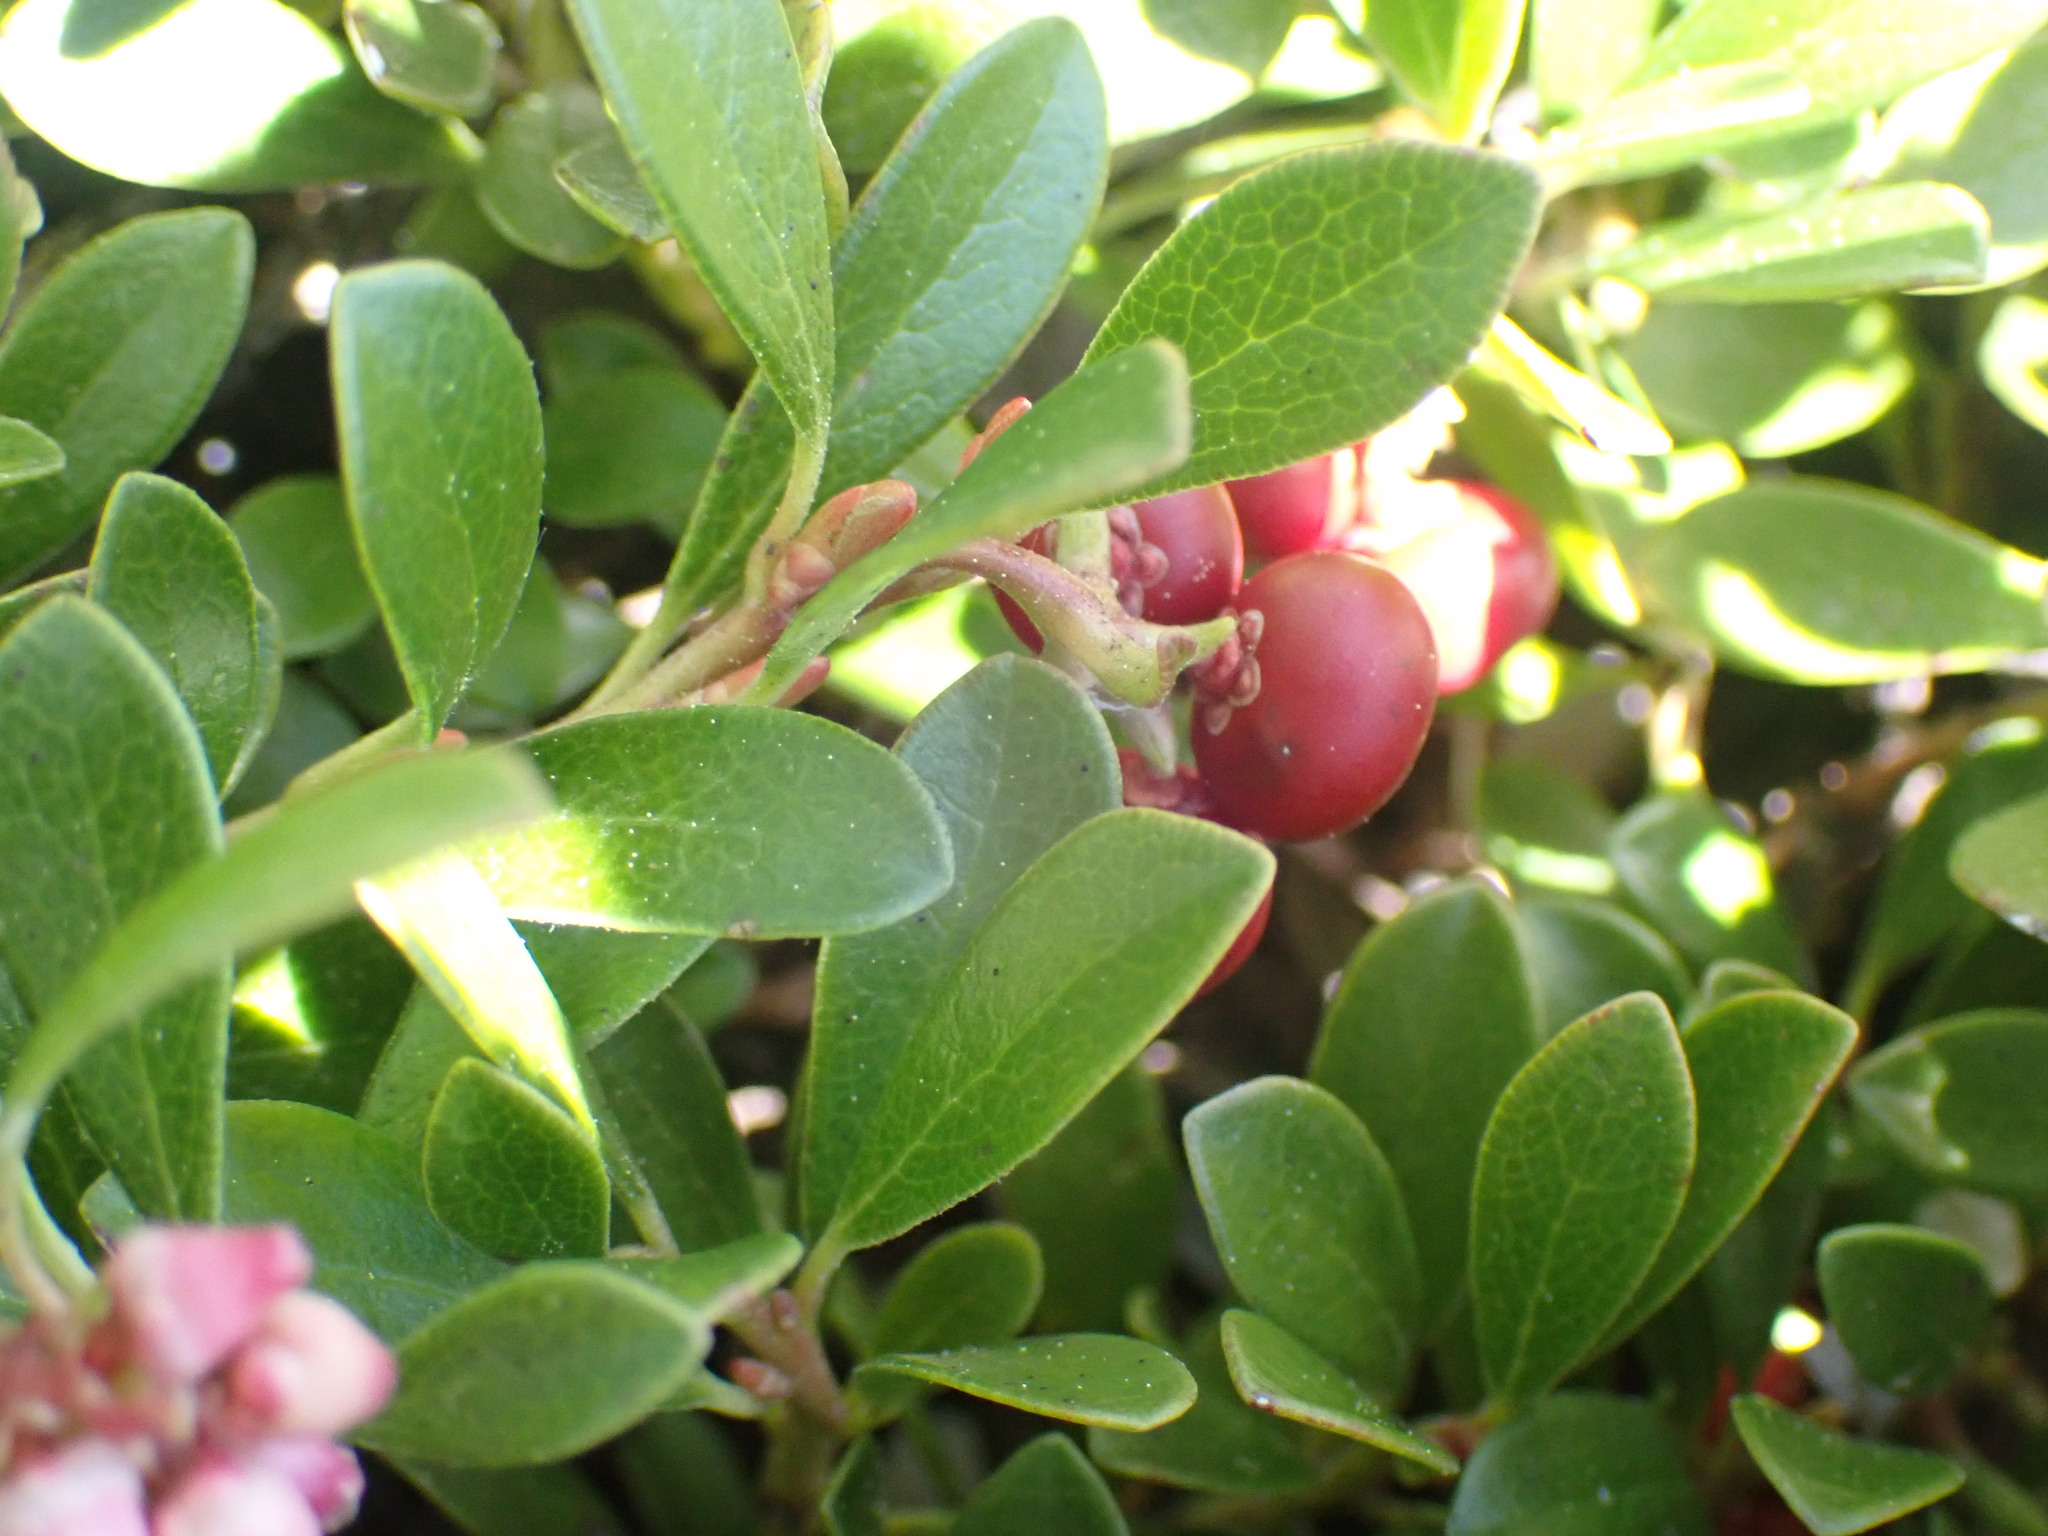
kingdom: Plantae
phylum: Tracheophyta
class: Magnoliopsida
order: Ericales
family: Ericaceae
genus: Arctostaphylos
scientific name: Arctostaphylos uva-ursi
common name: Bearberry
